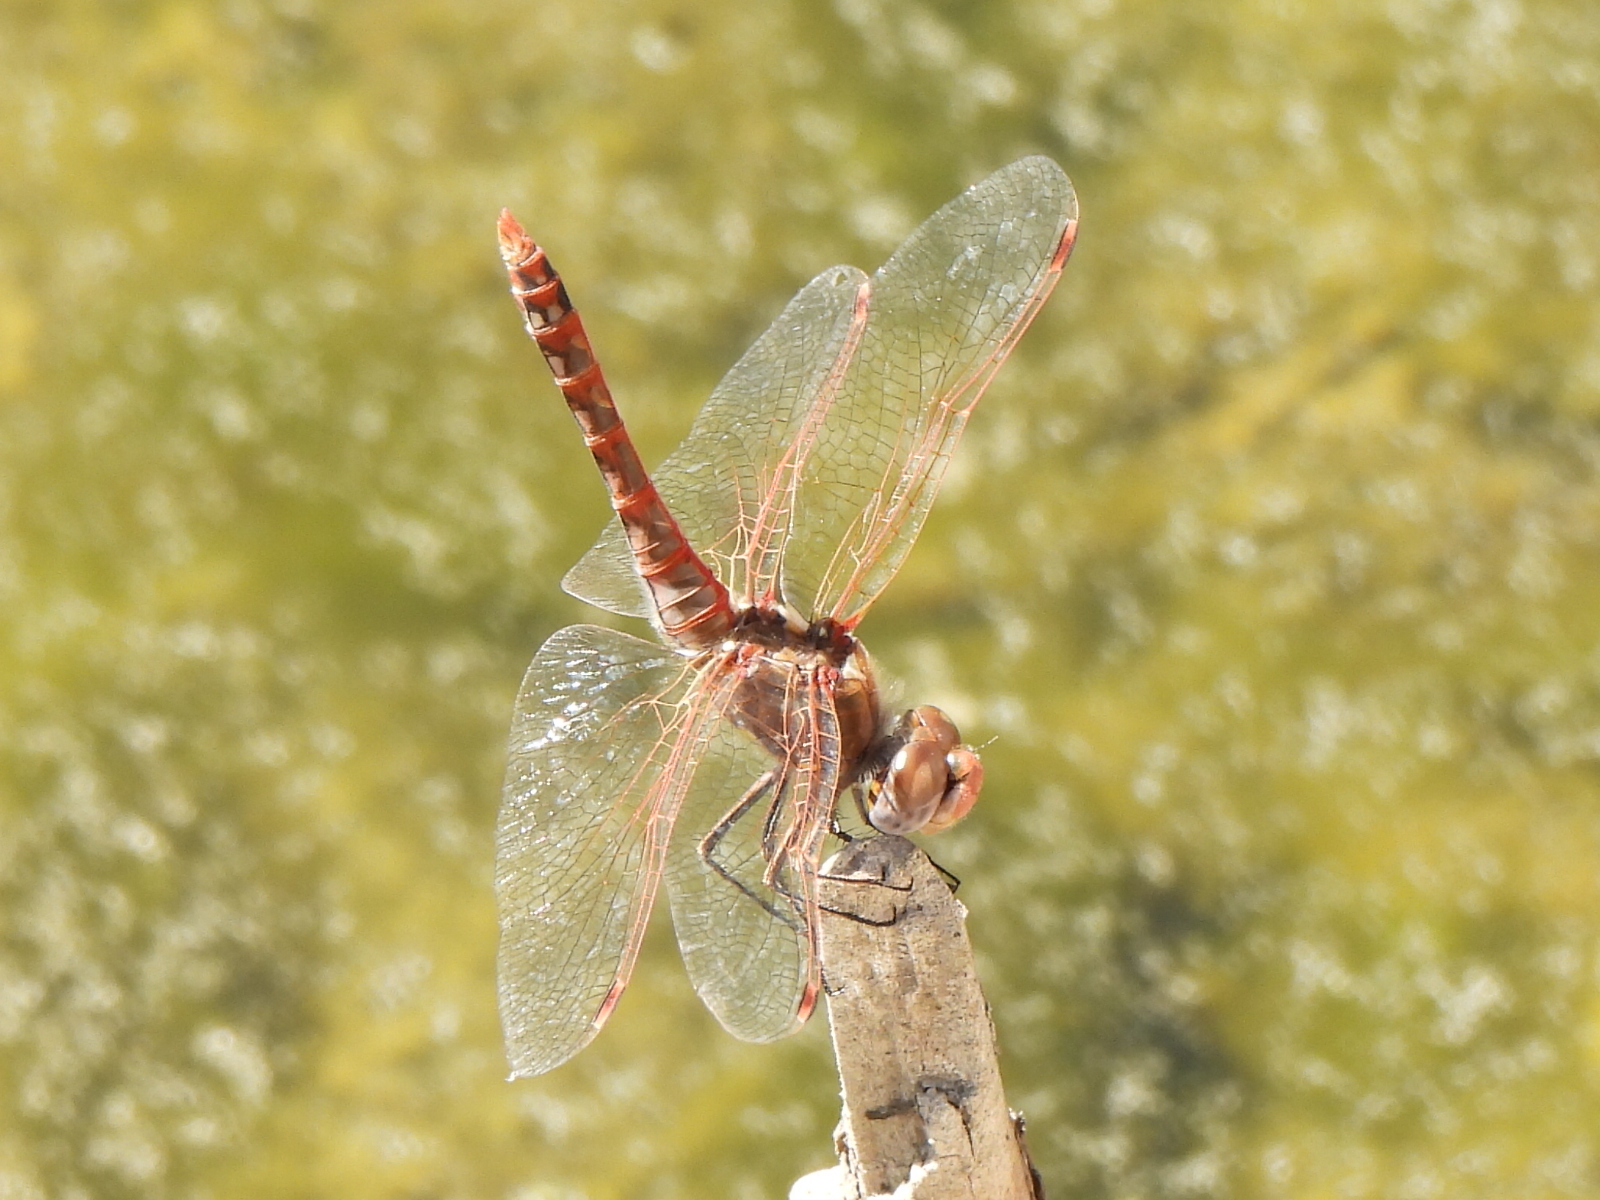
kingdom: Animalia
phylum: Arthropoda
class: Insecta
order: Odonata
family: Libellulidae
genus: Sympetrum
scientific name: Sympetrum corruptum
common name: Variegated meadowhawk
